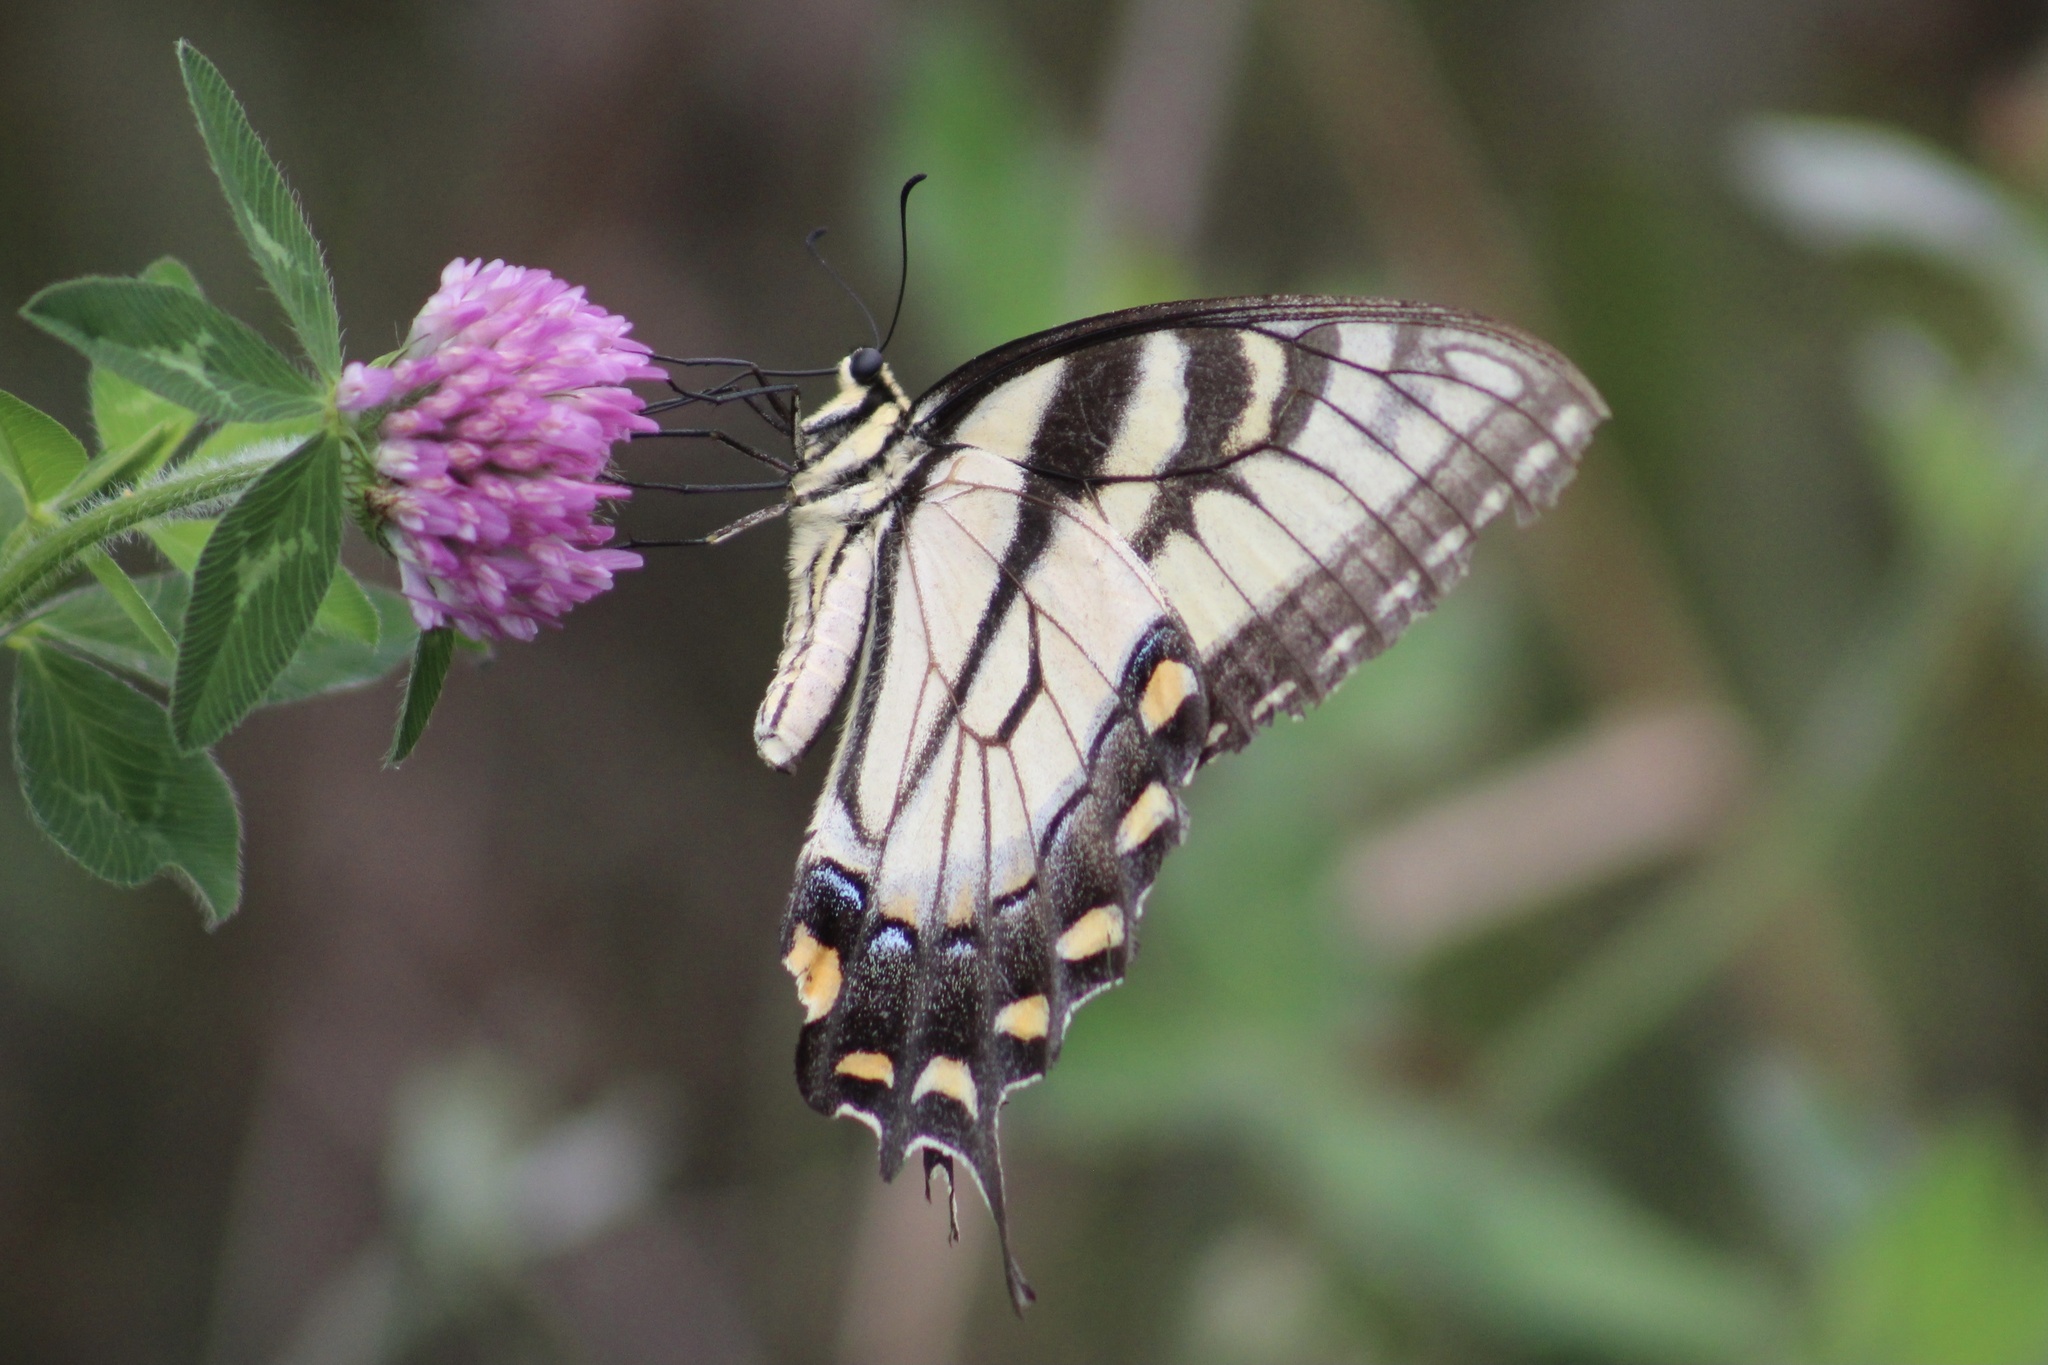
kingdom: Animalia
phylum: Arthropoda
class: Insecta
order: Lepidoptera
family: Papilionidae
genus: Papilio
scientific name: Papilio glaucus
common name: Tiger swallowtail
